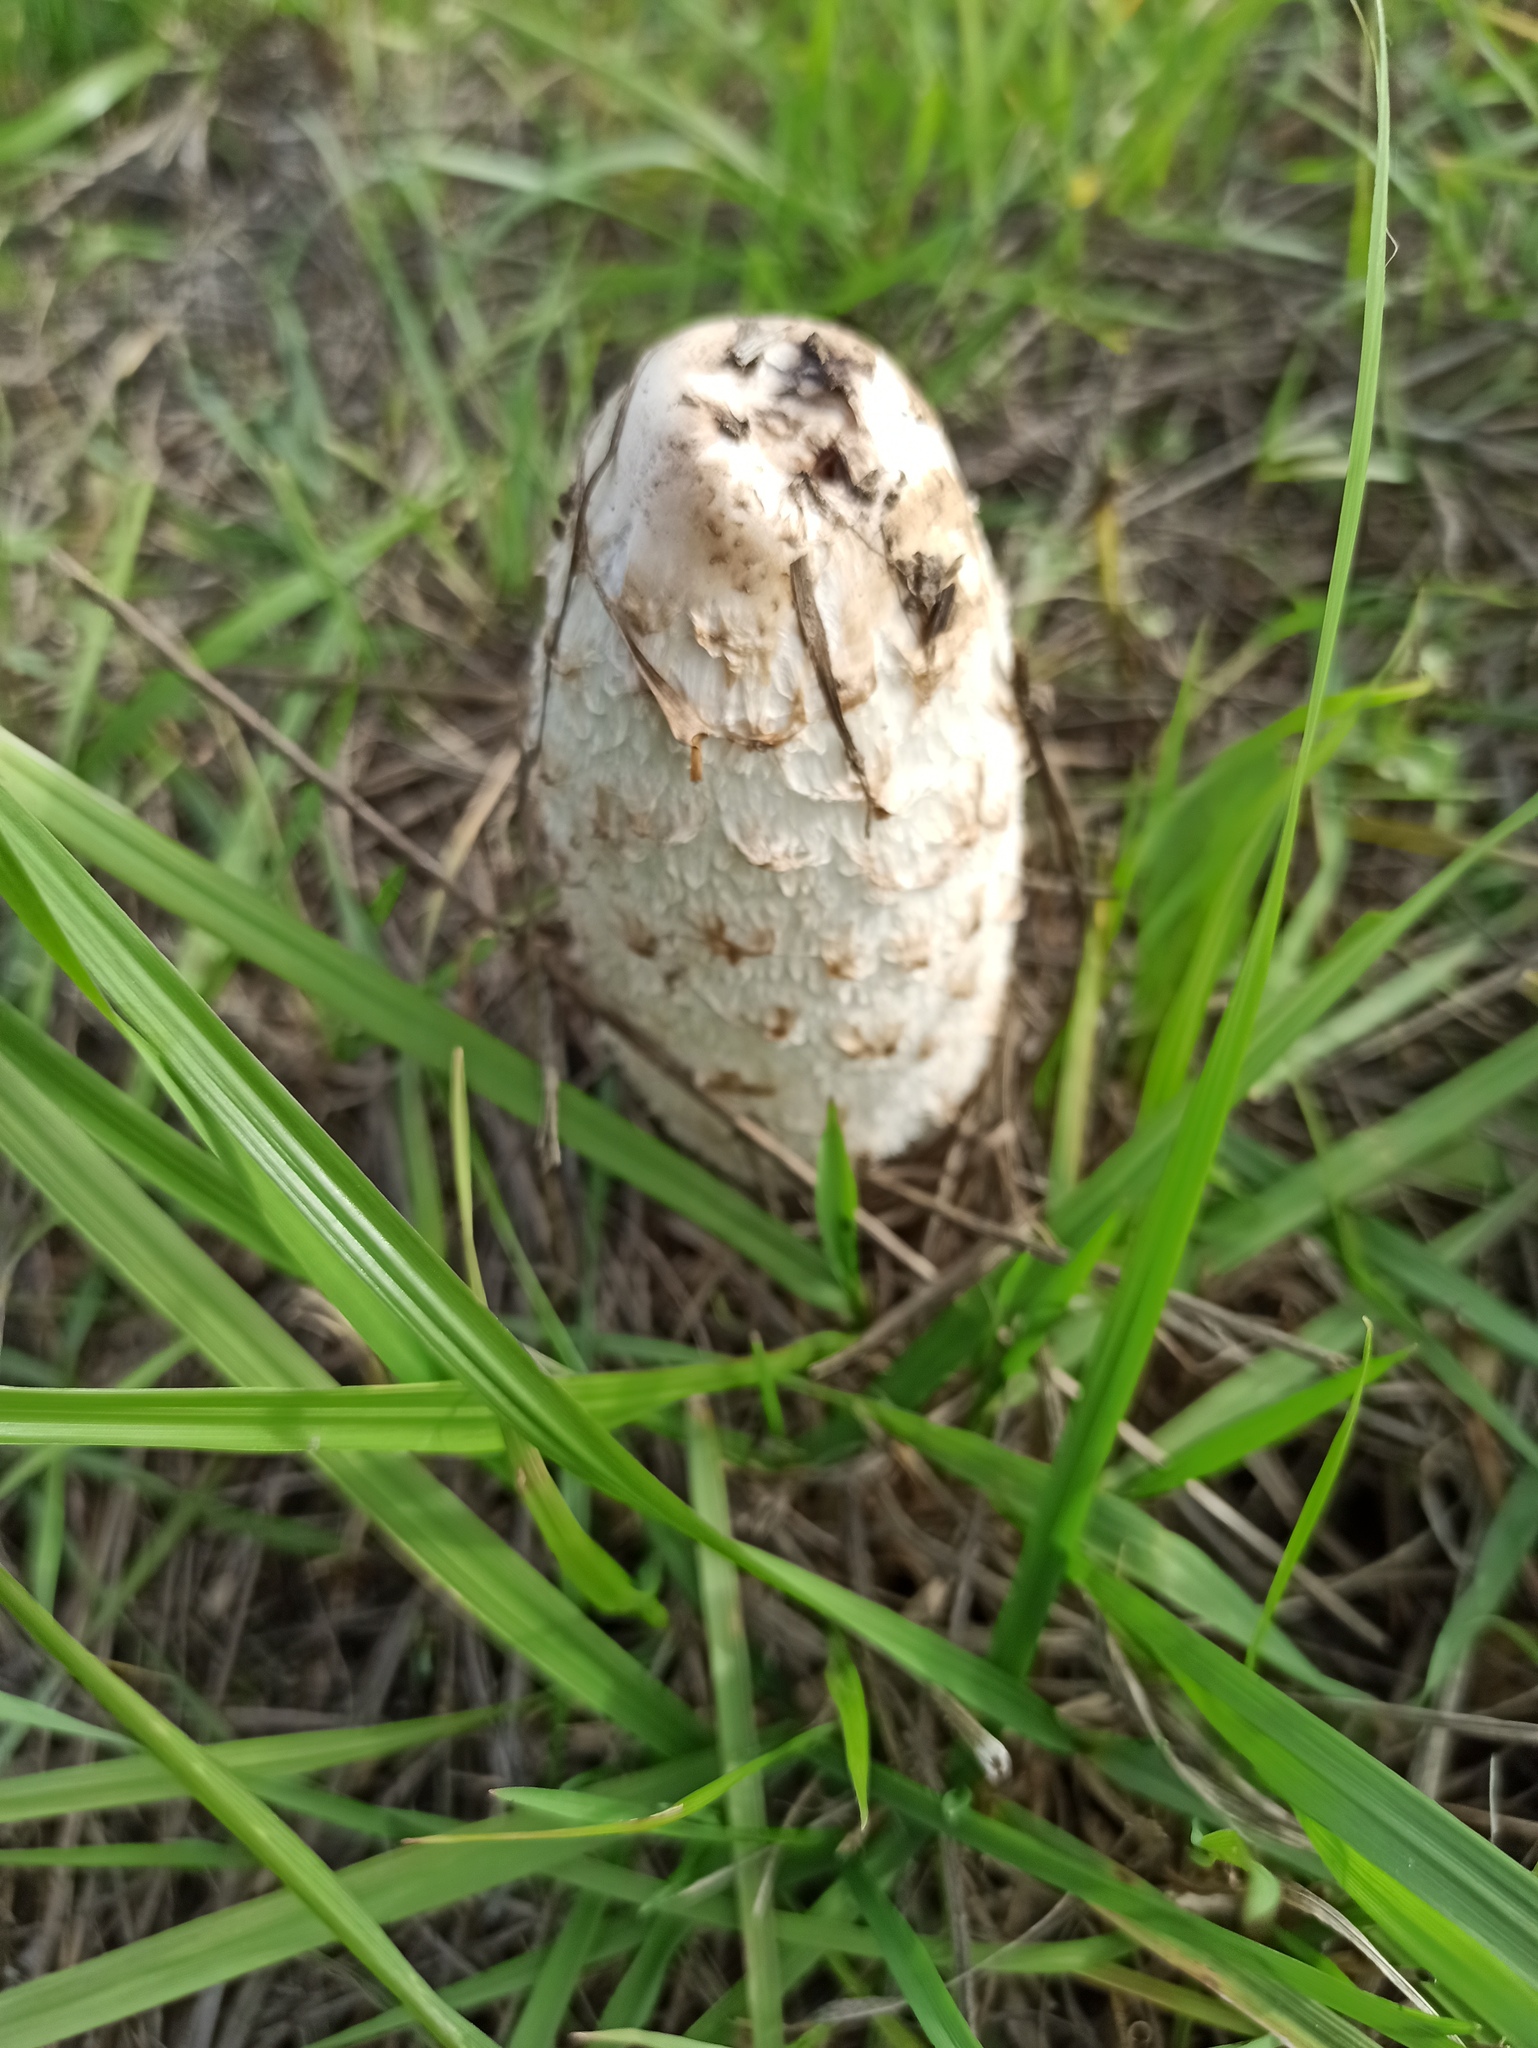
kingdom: Fungi
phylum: Basidiomycota
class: Agaricomycetes
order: Agaricales
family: Agaricaceae
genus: Coprinus
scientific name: Coprinus comatus
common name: Lawyer's wig
